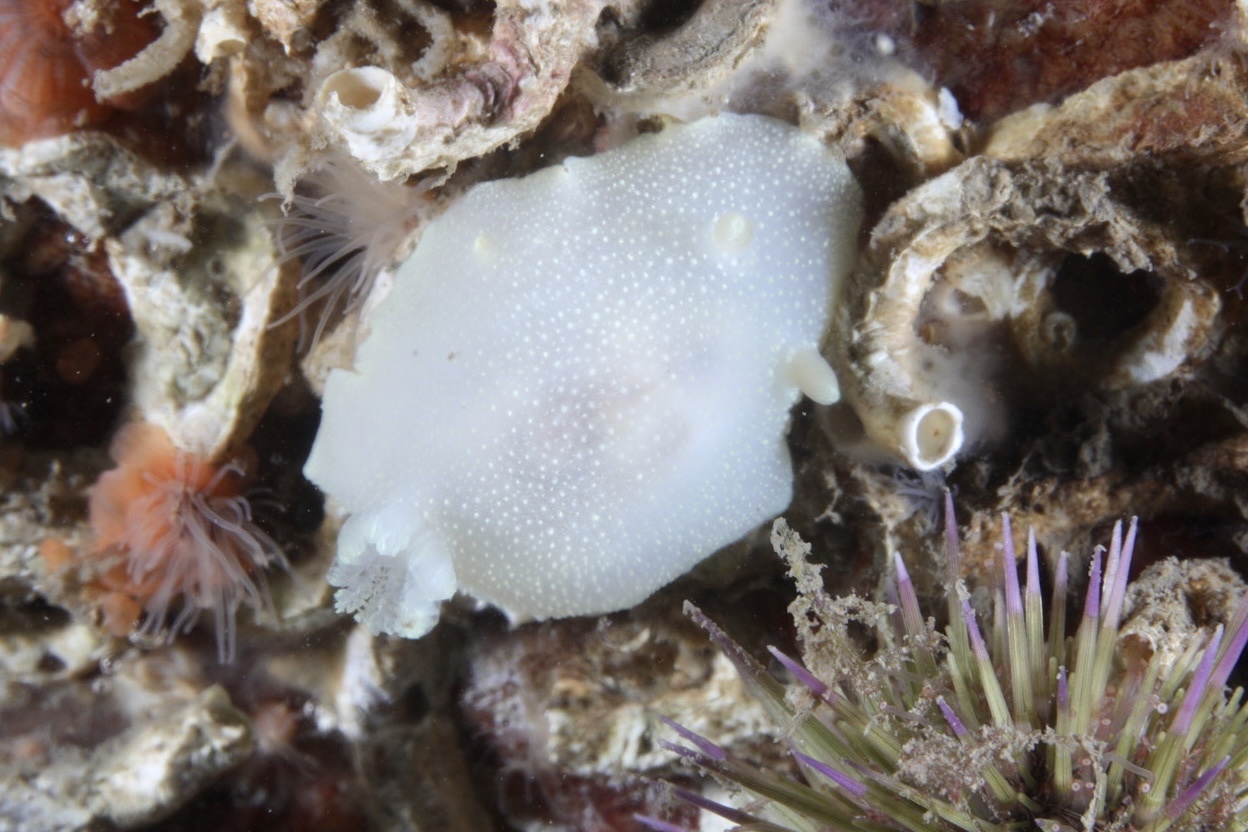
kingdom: Animalia
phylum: Mollusca
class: Gastropoda
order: Nudibranchia
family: Cadlinidae
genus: Cadlina
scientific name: Cadlina laevis
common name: White atlantic cadlina
